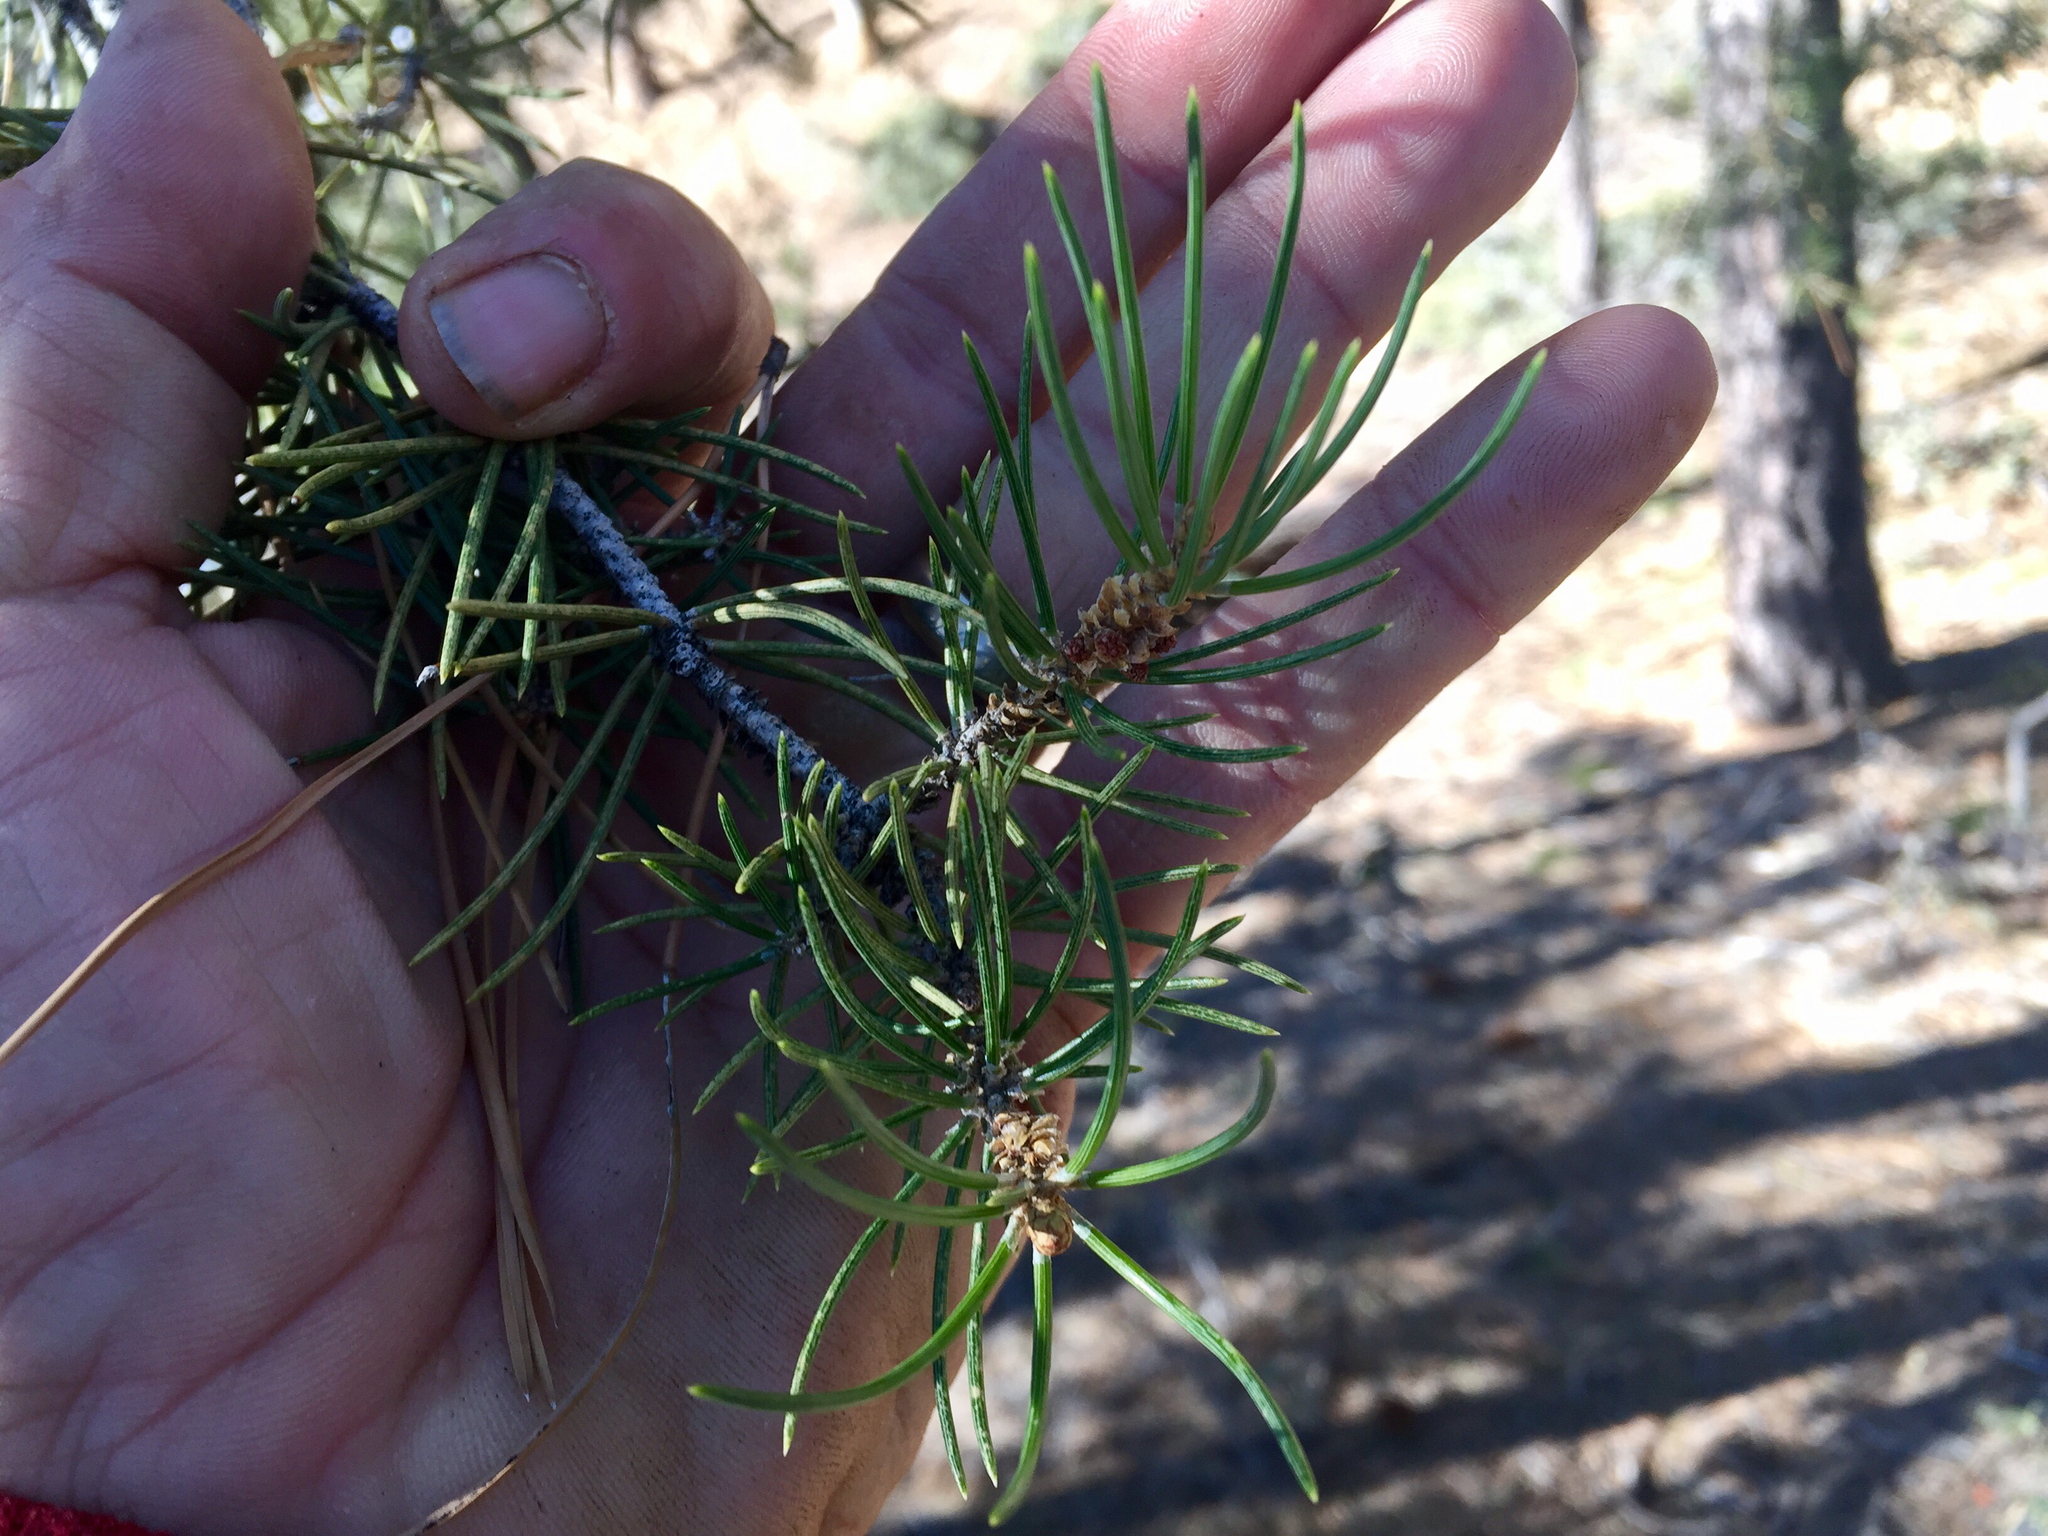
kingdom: Plantae
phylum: Tracheophyta
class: Pinopsida
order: Pinales
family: Pinaceae
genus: Pinus
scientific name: Pinus monophylla
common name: One-leaved nut pine
